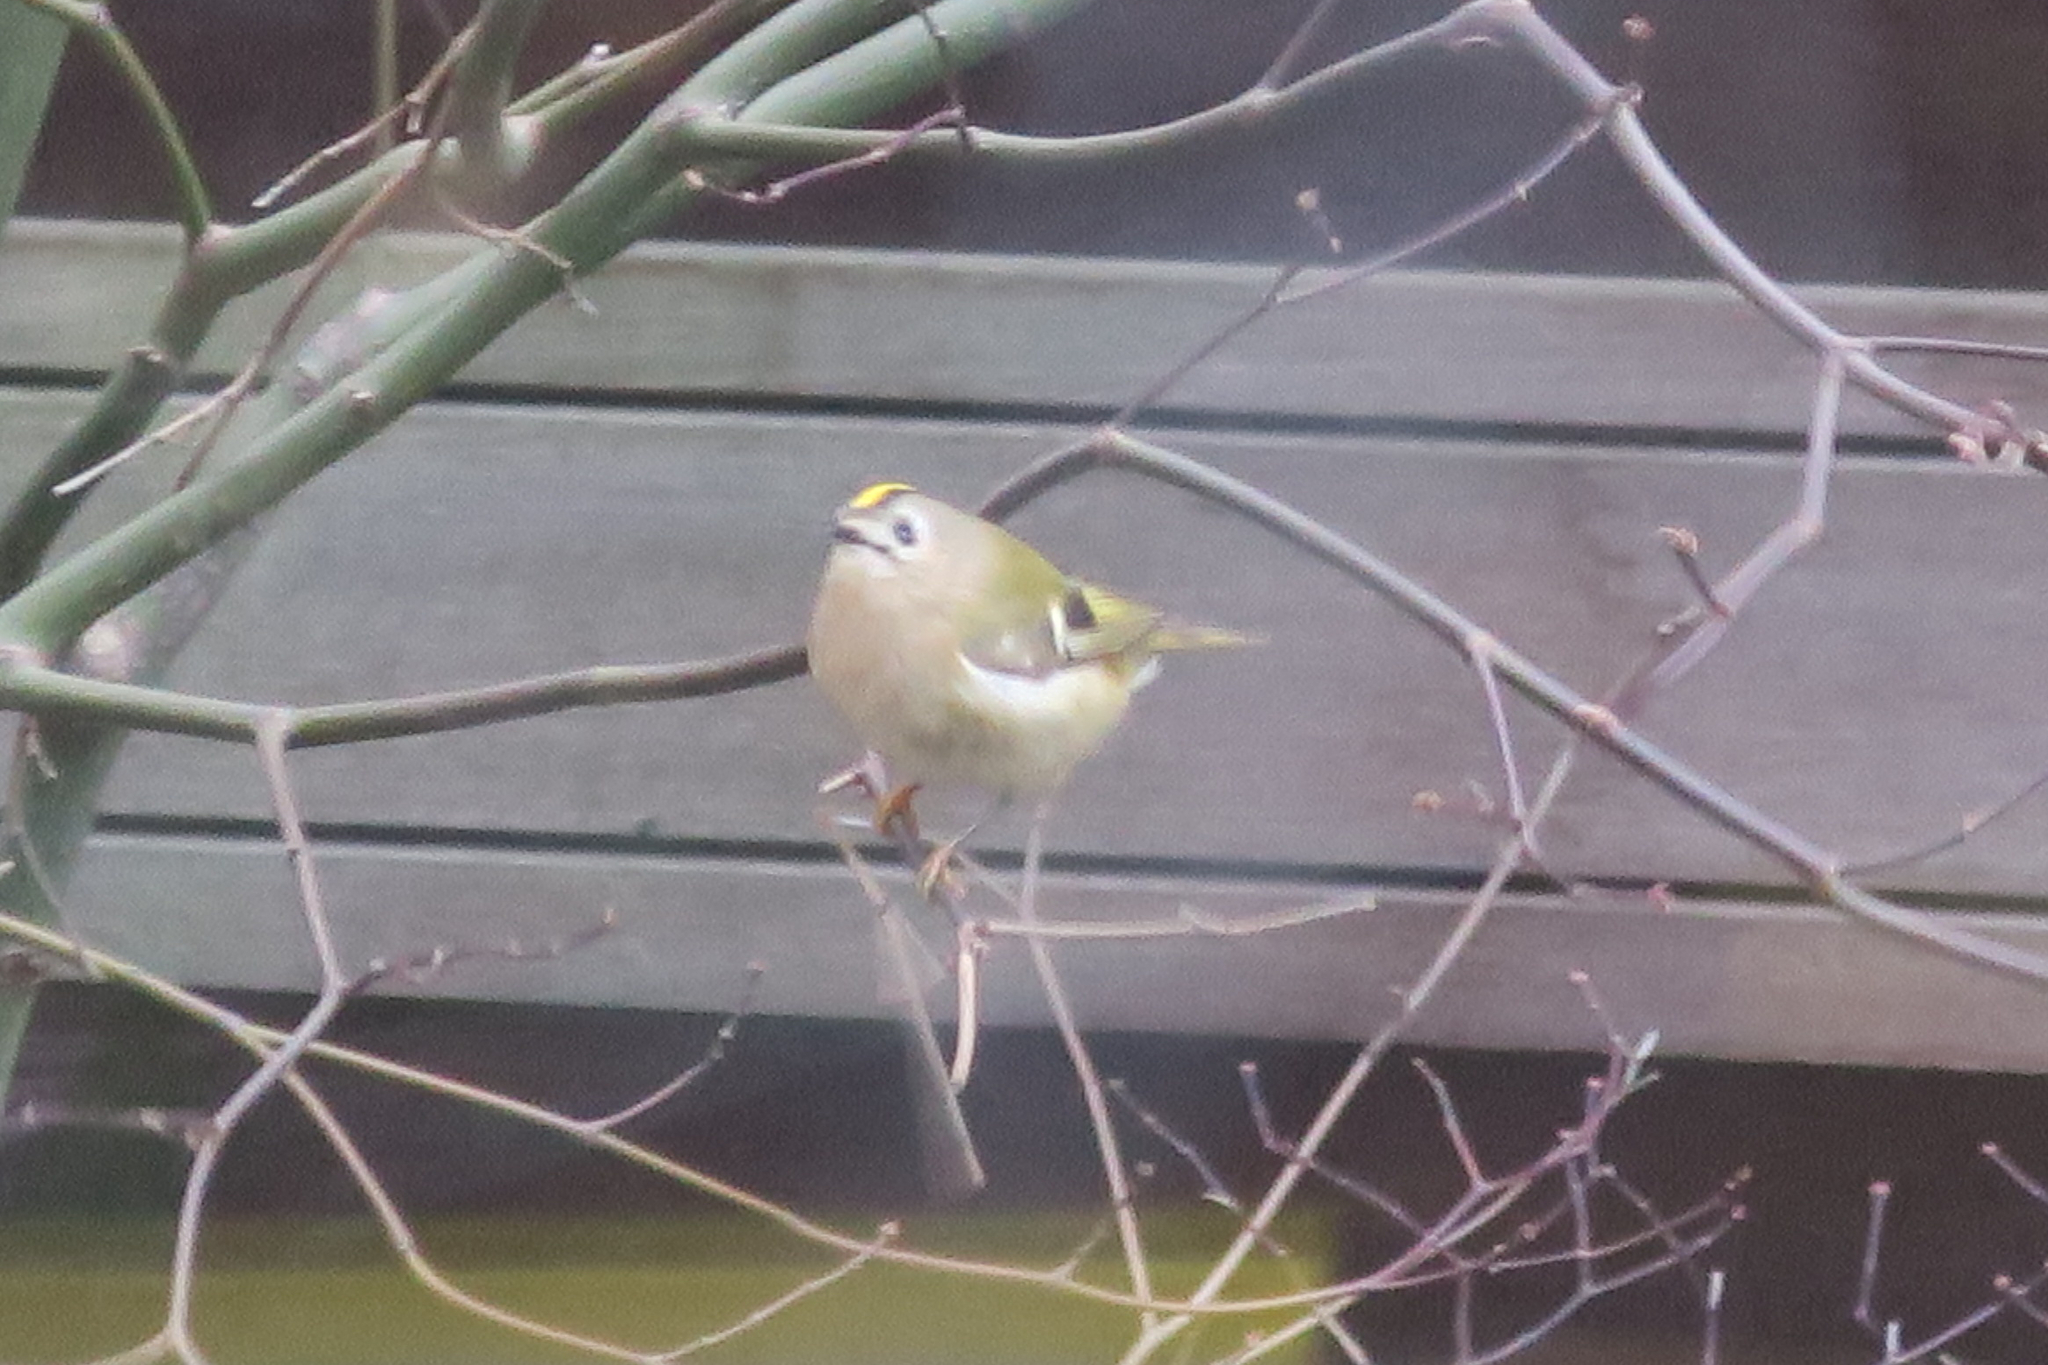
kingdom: Animalia
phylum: Chordata
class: Aves
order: Passeriformes
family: Regulidae
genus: Regulus
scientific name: Regulus regulus
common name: Goldcrest
